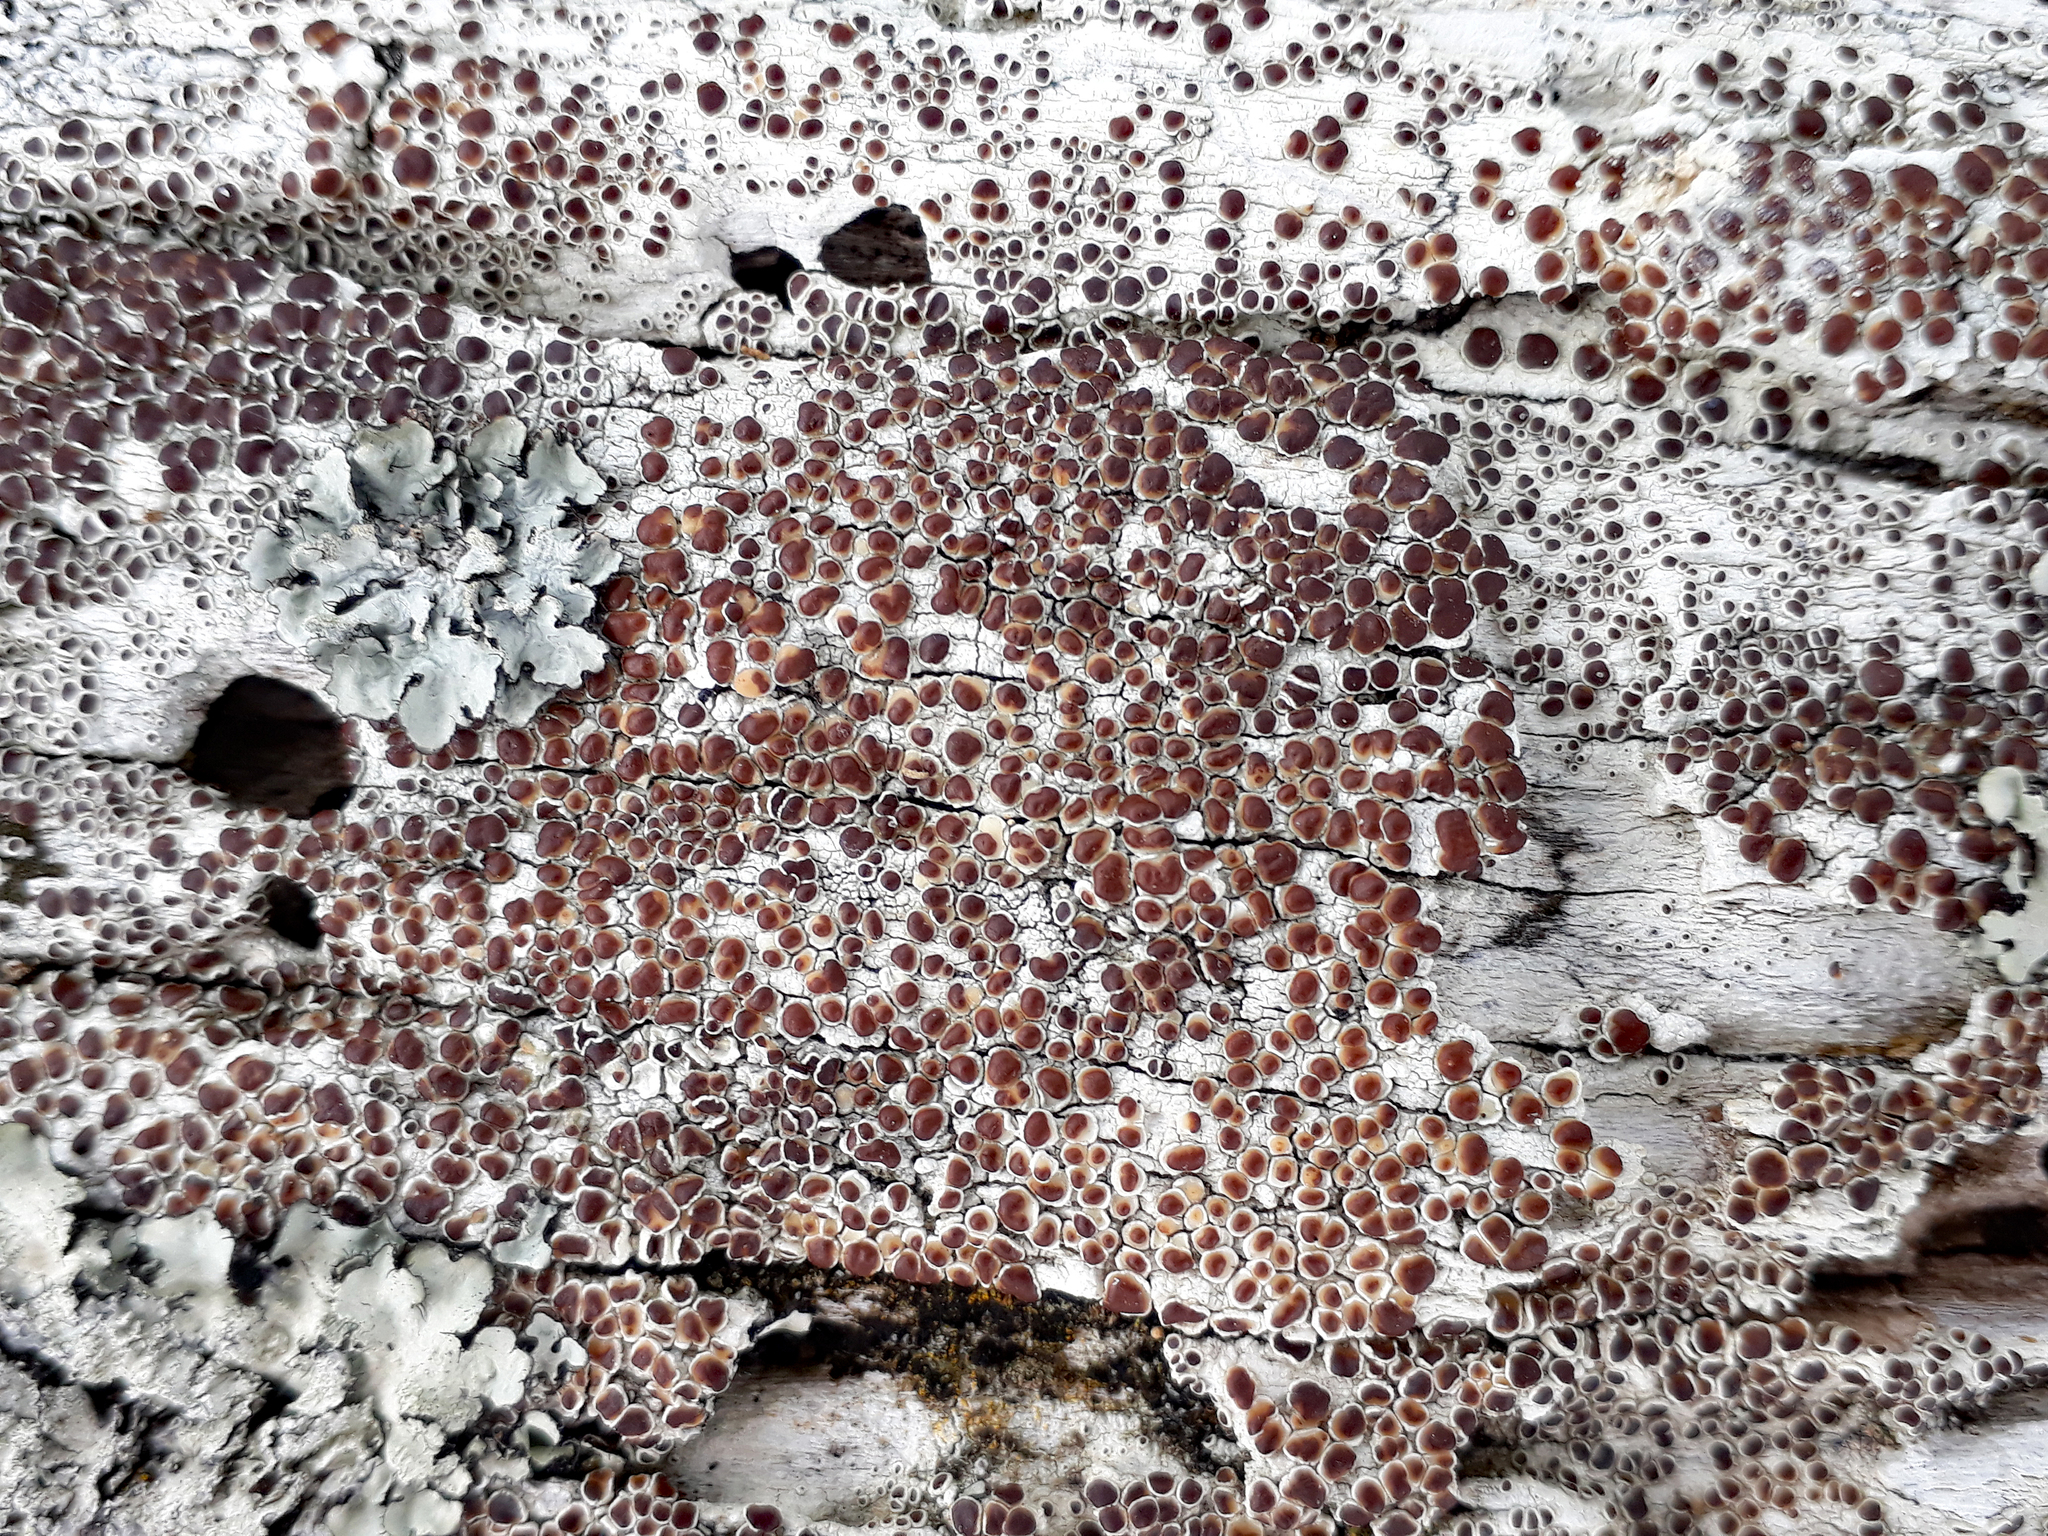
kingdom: Fungi
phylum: Ascomycota
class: Lecanoromycetes
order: Lecanorales
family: Lecanoraceae
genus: Lecanora
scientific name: Lecanora xylophila
